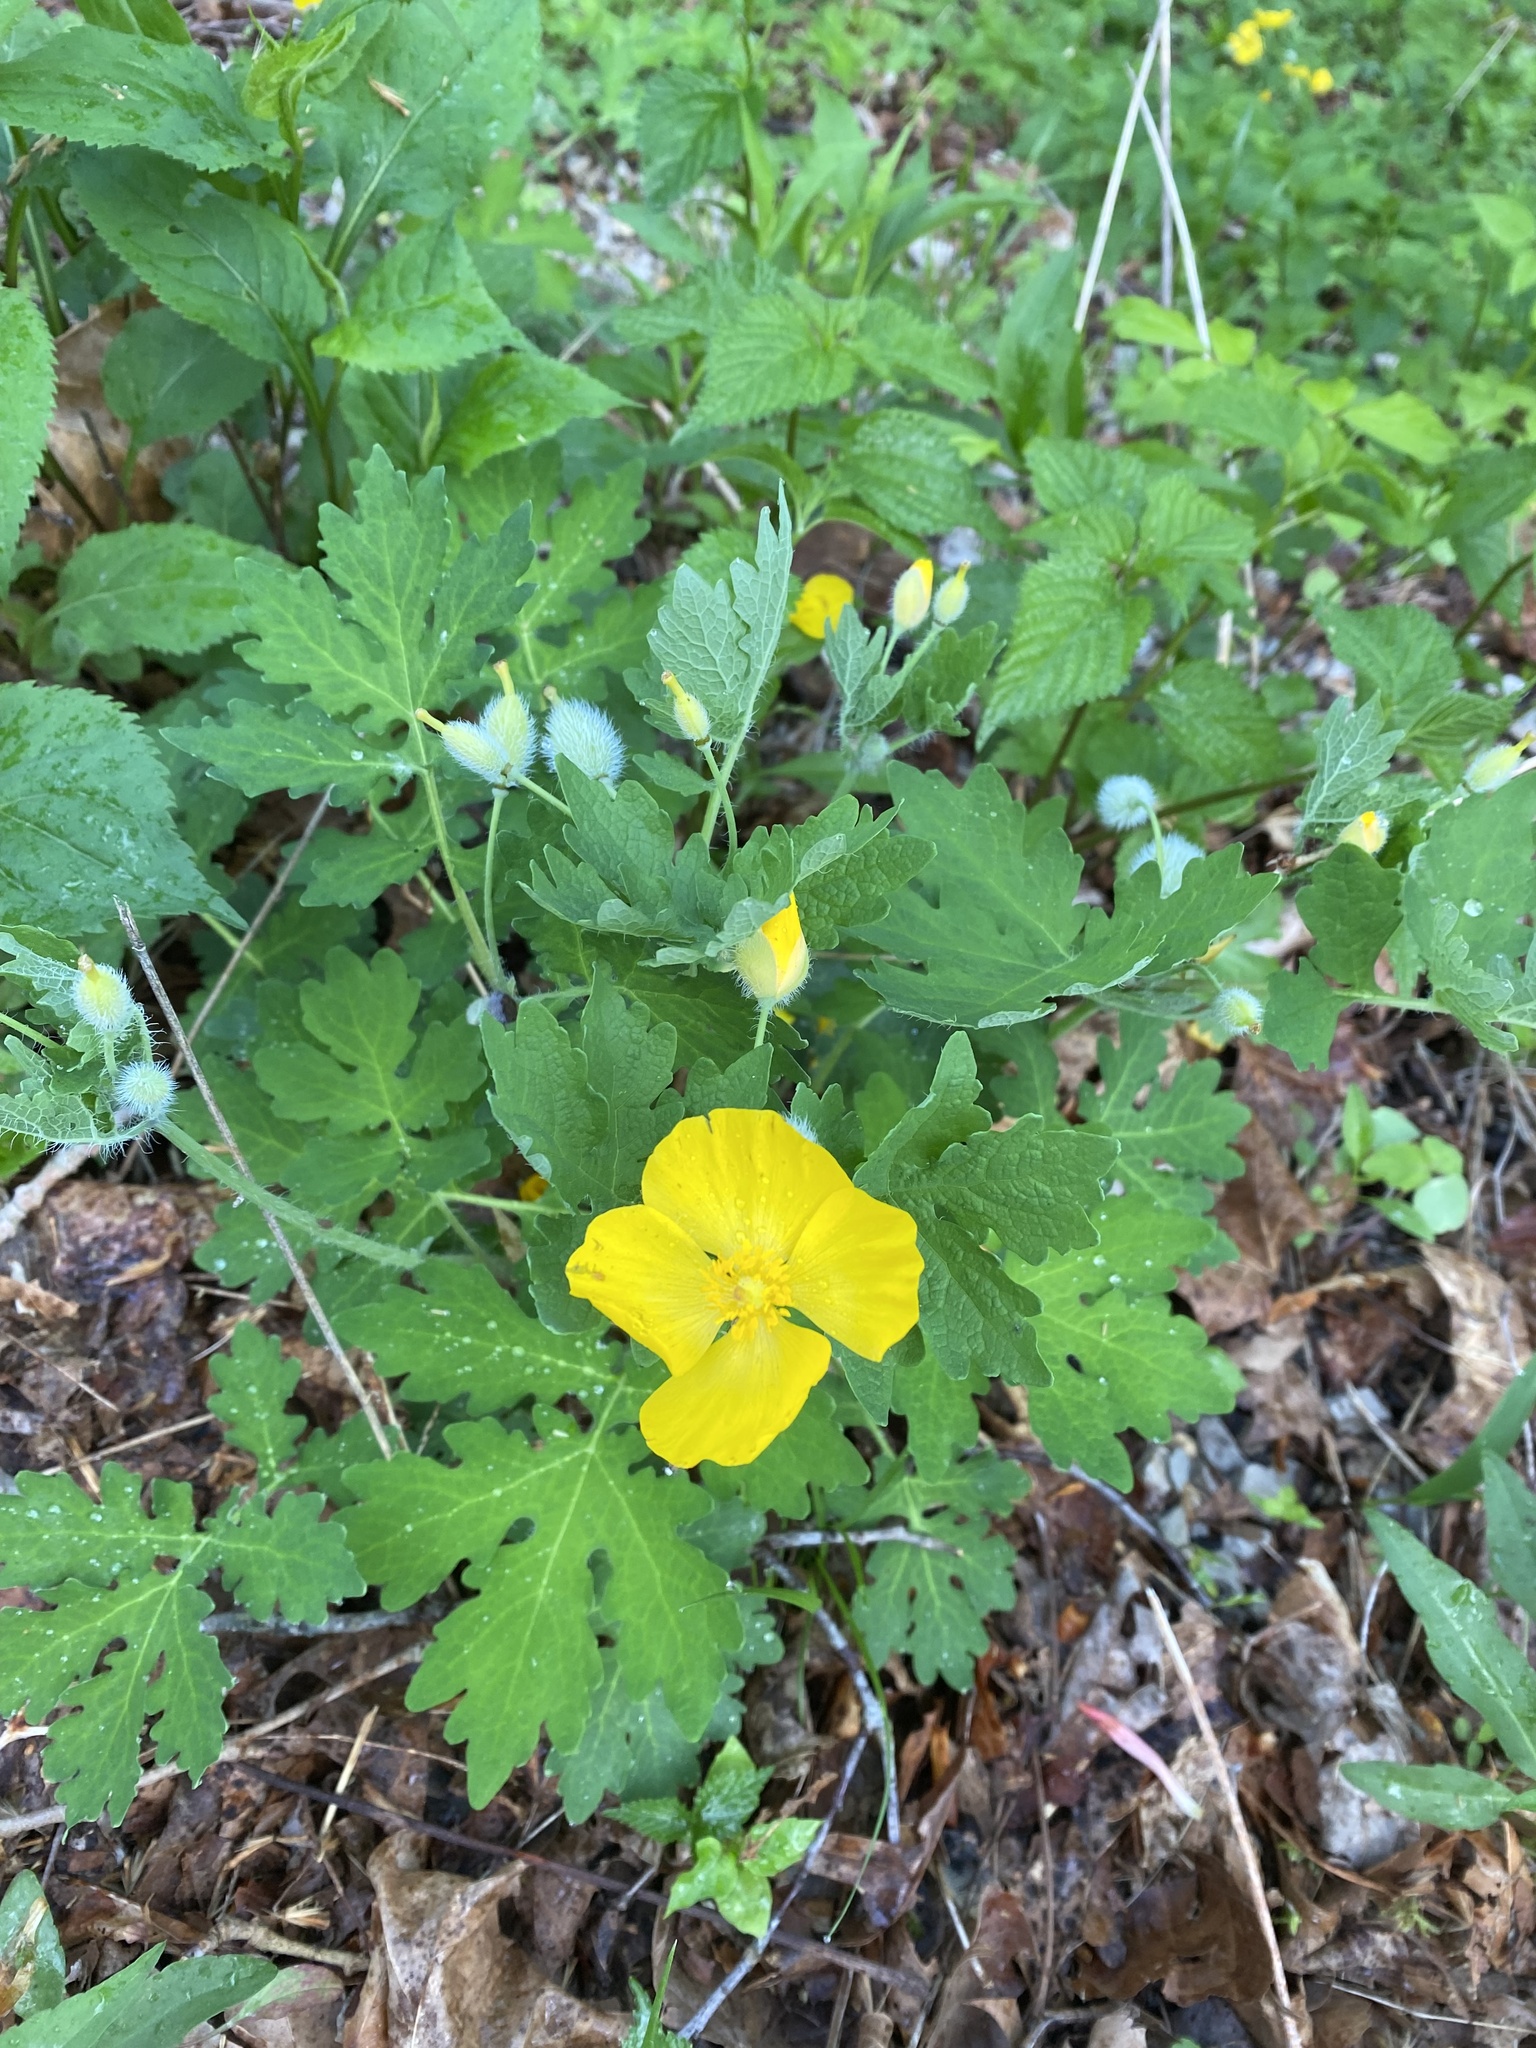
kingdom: Plantae
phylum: Tracheophyta
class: Magnoliopsida
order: Ranunculales
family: Papaveraceae
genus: Stylophorum
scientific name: Stylophorum diphyllum
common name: Celandine poppy
